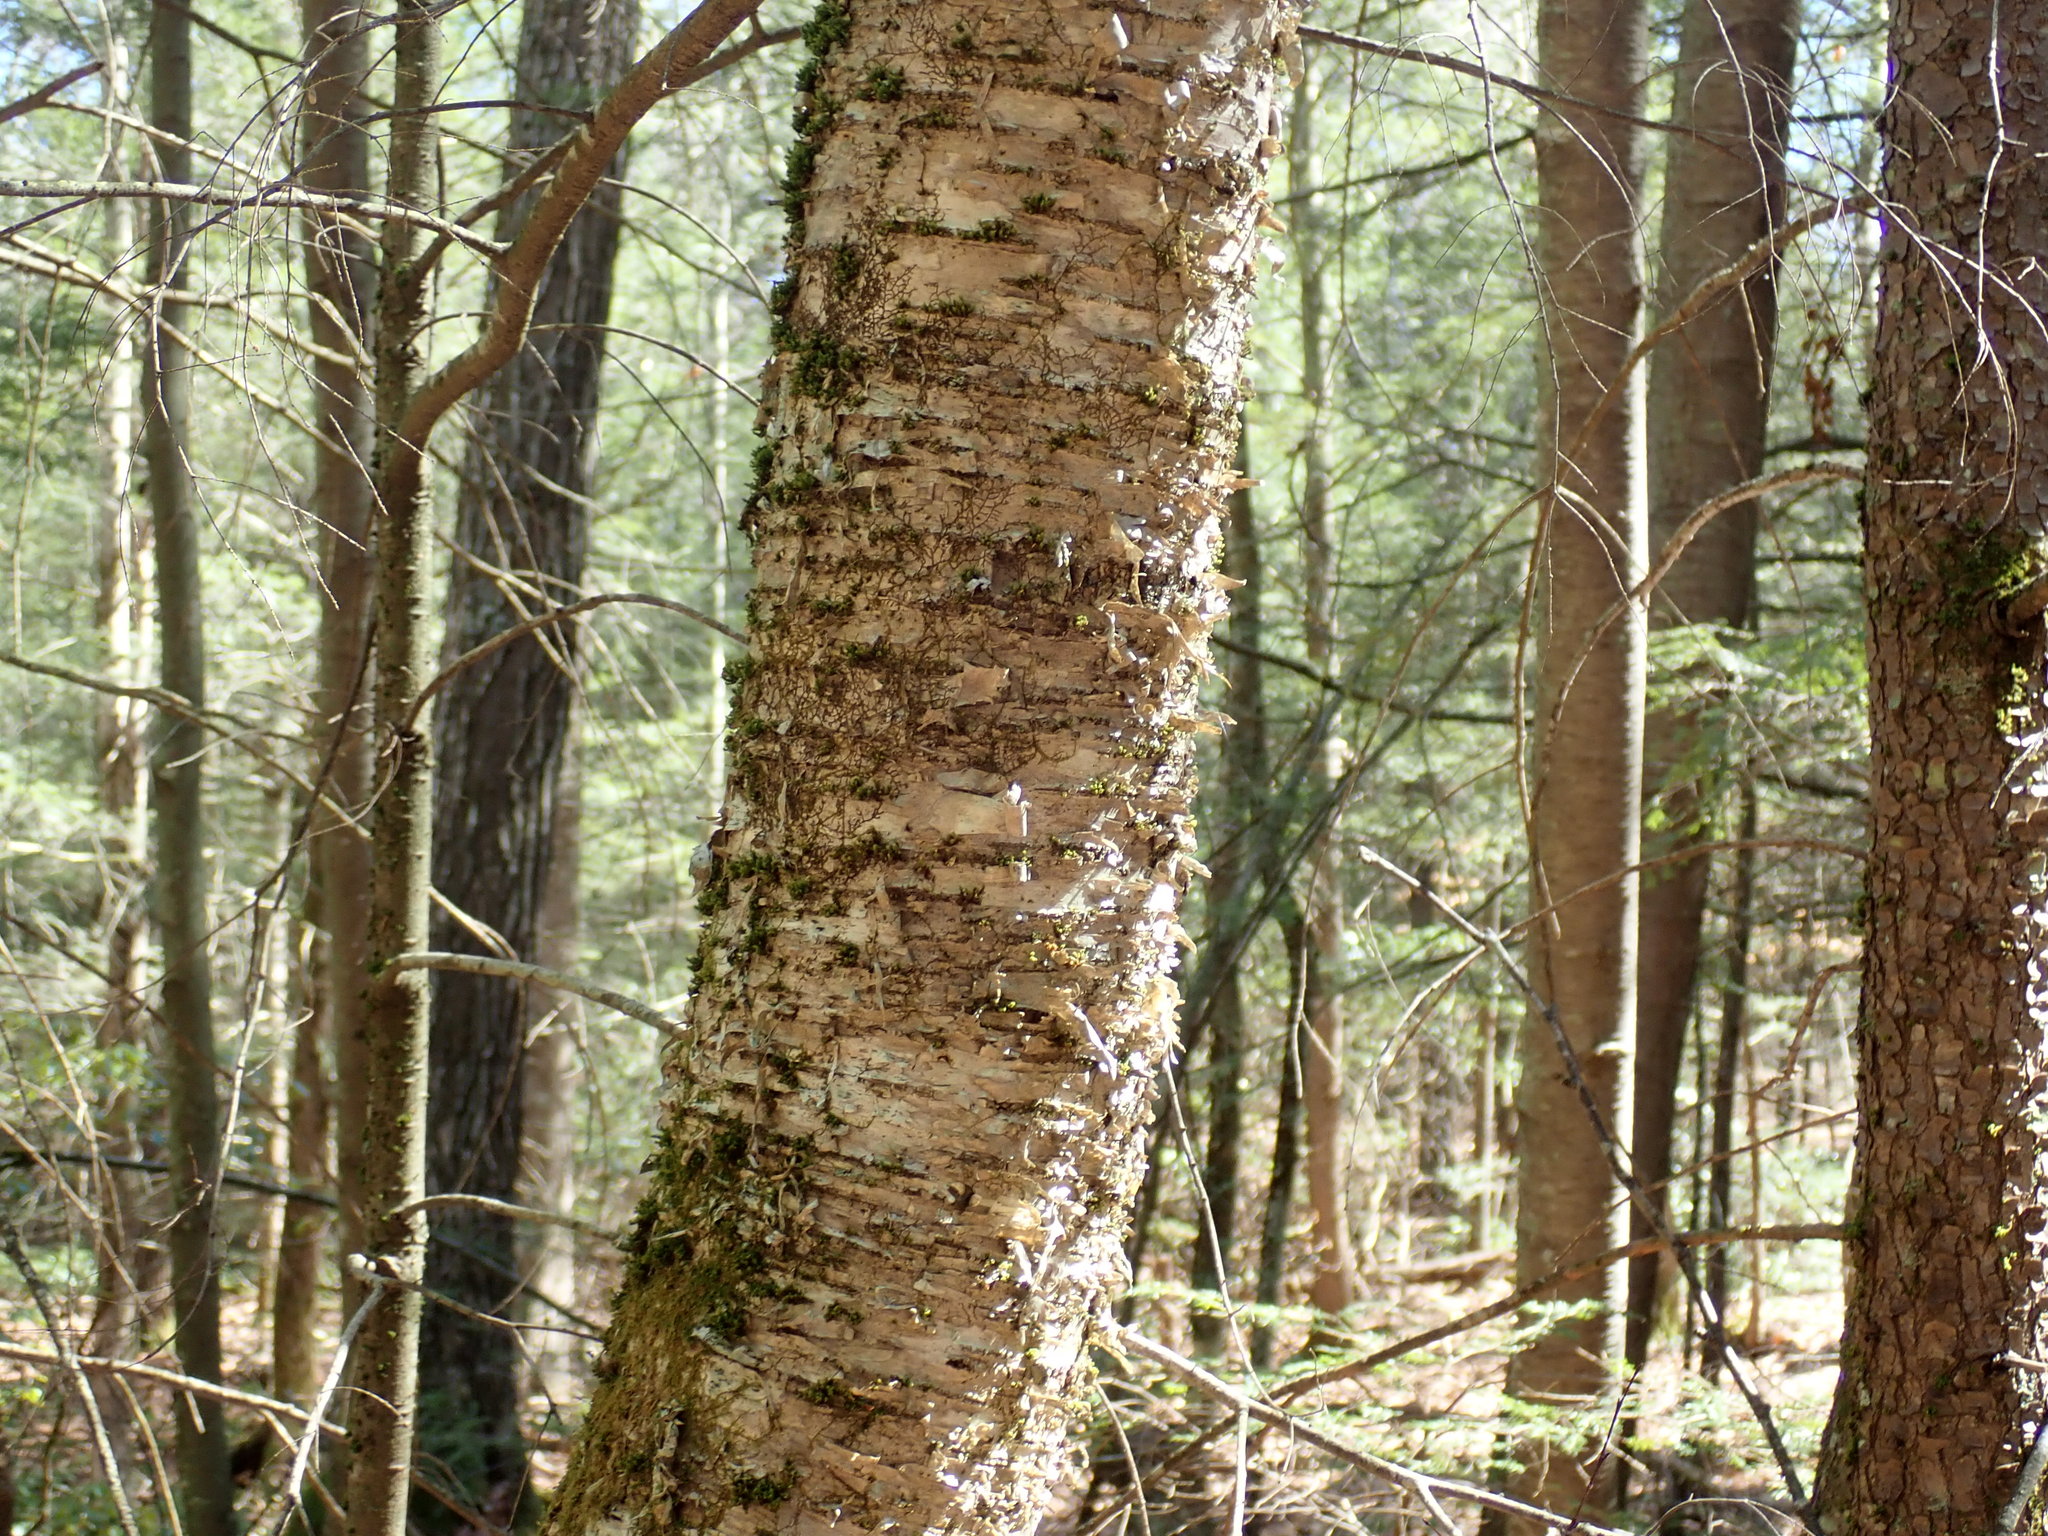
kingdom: Plantae
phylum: Tracheophyta
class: Magnoliopsida
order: Fagales
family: Betulaceae
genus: Betula
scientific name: Betula alleghaniensis
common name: Yellow birch
